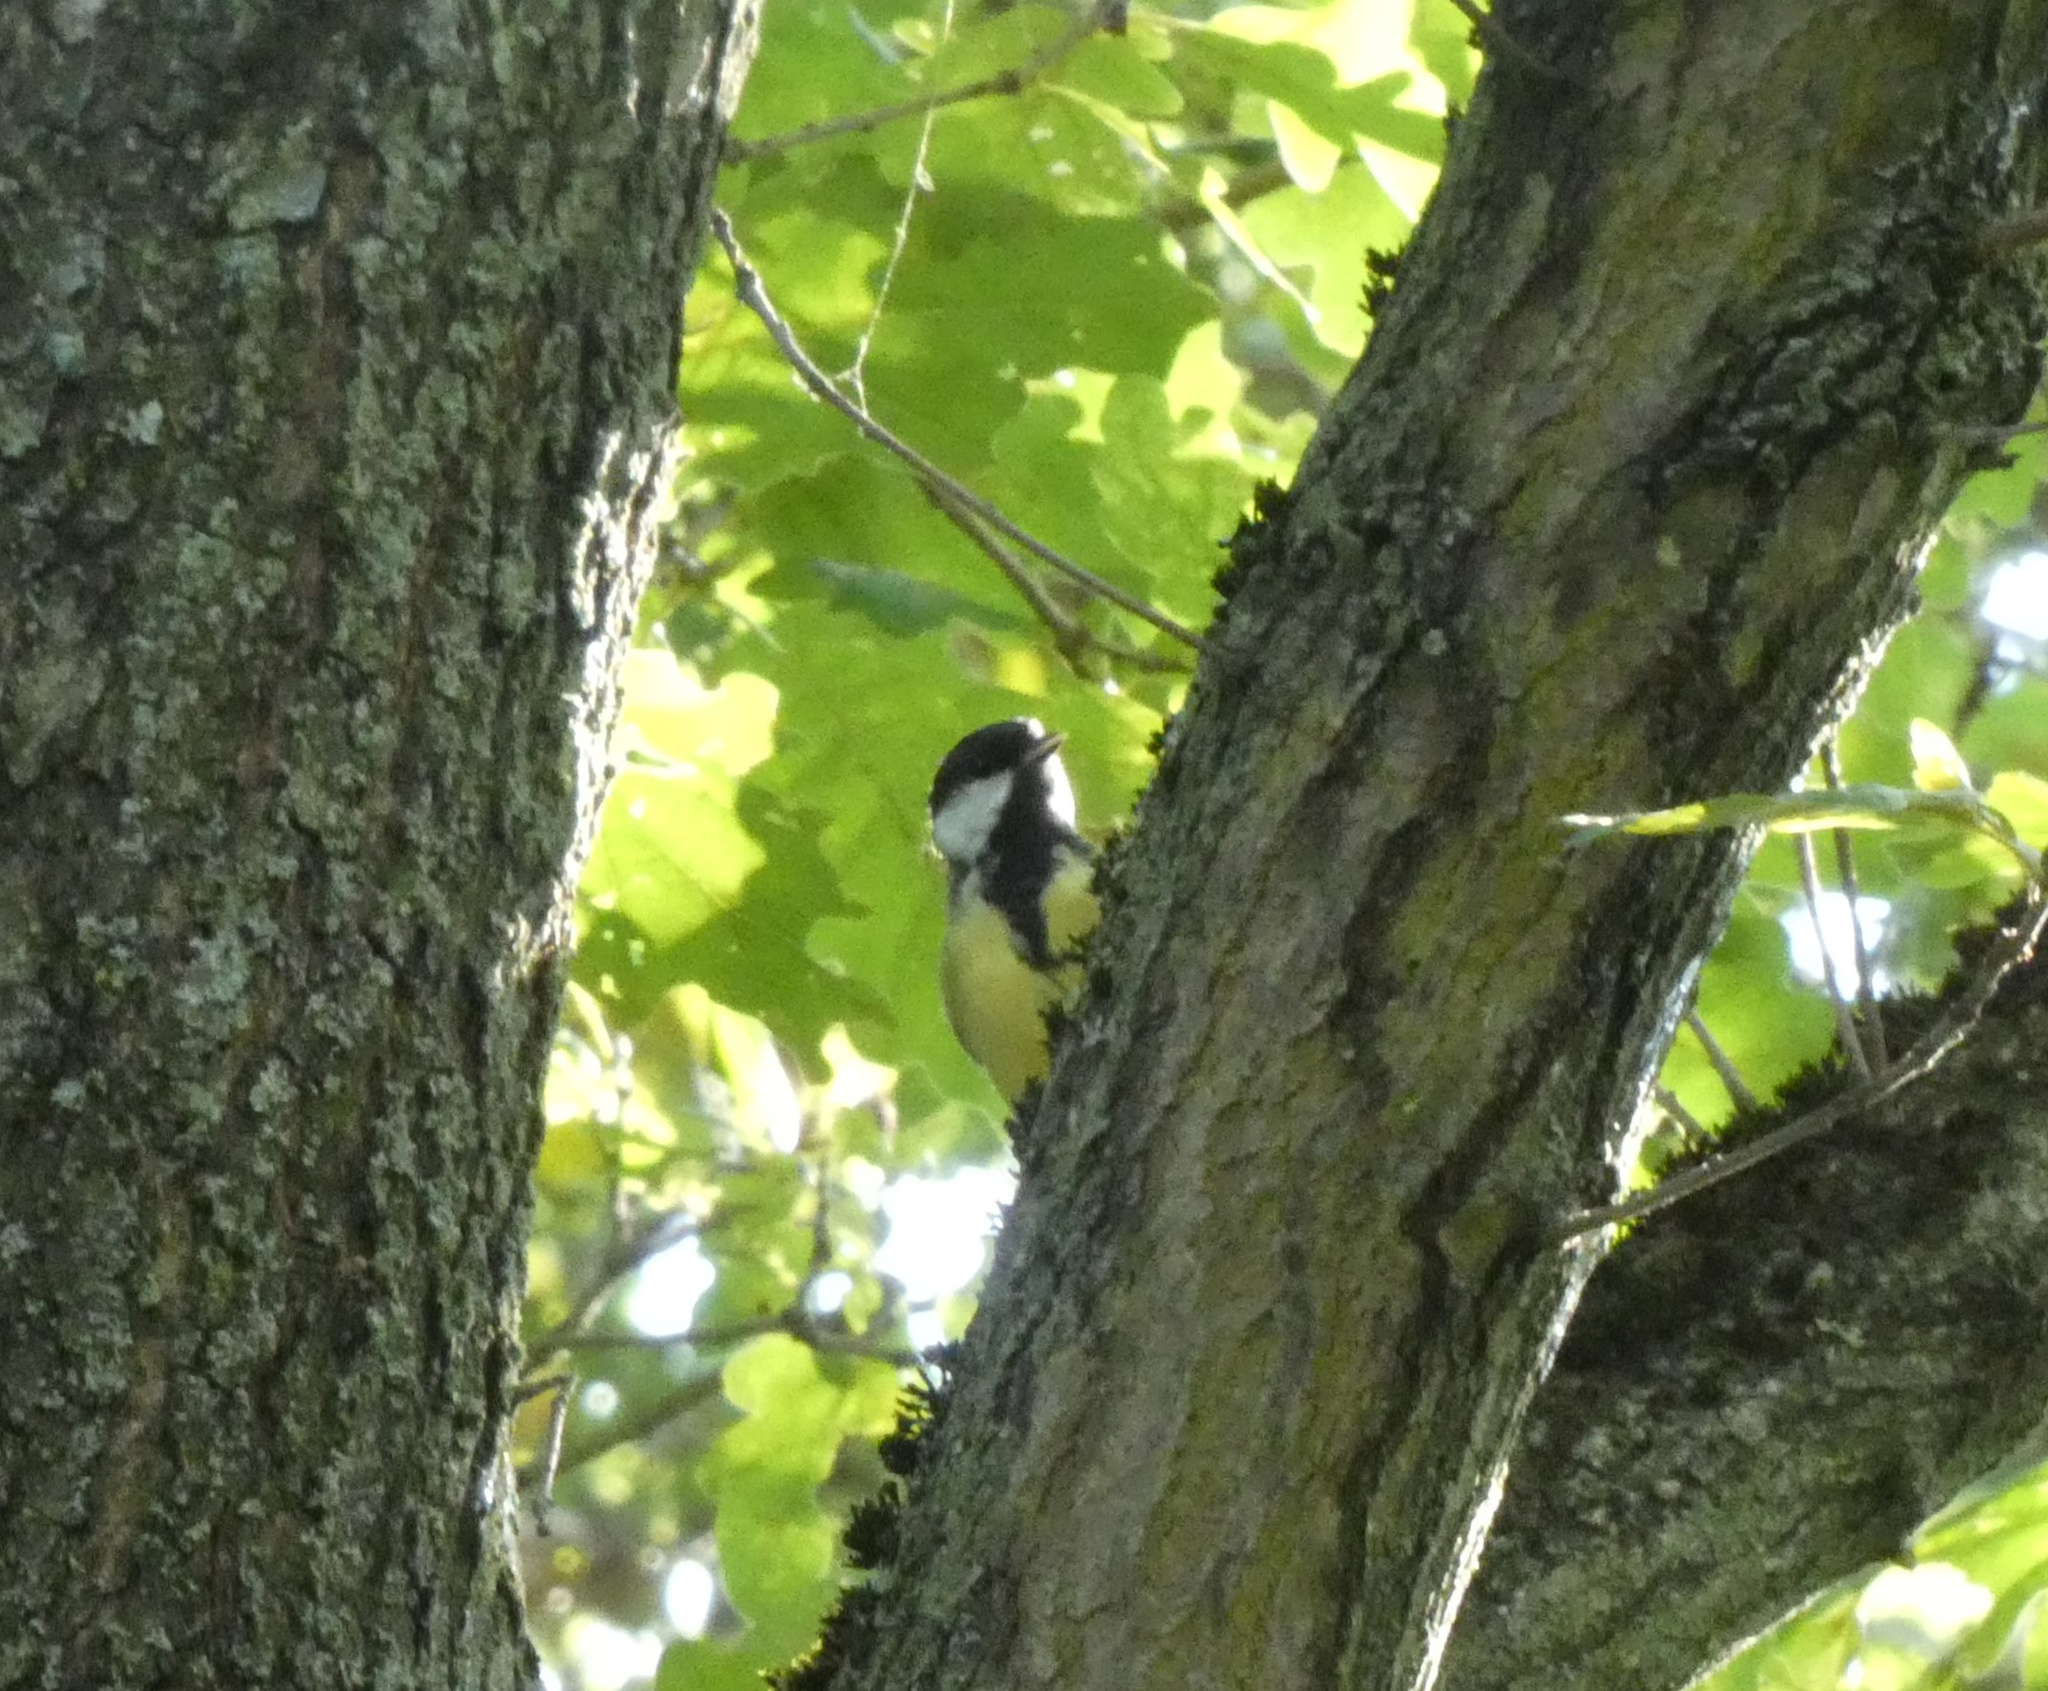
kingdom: Animalia
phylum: Chordata
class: Aves
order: Passeriformes
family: Paridae
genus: Parus
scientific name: Parus major
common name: Great tit
